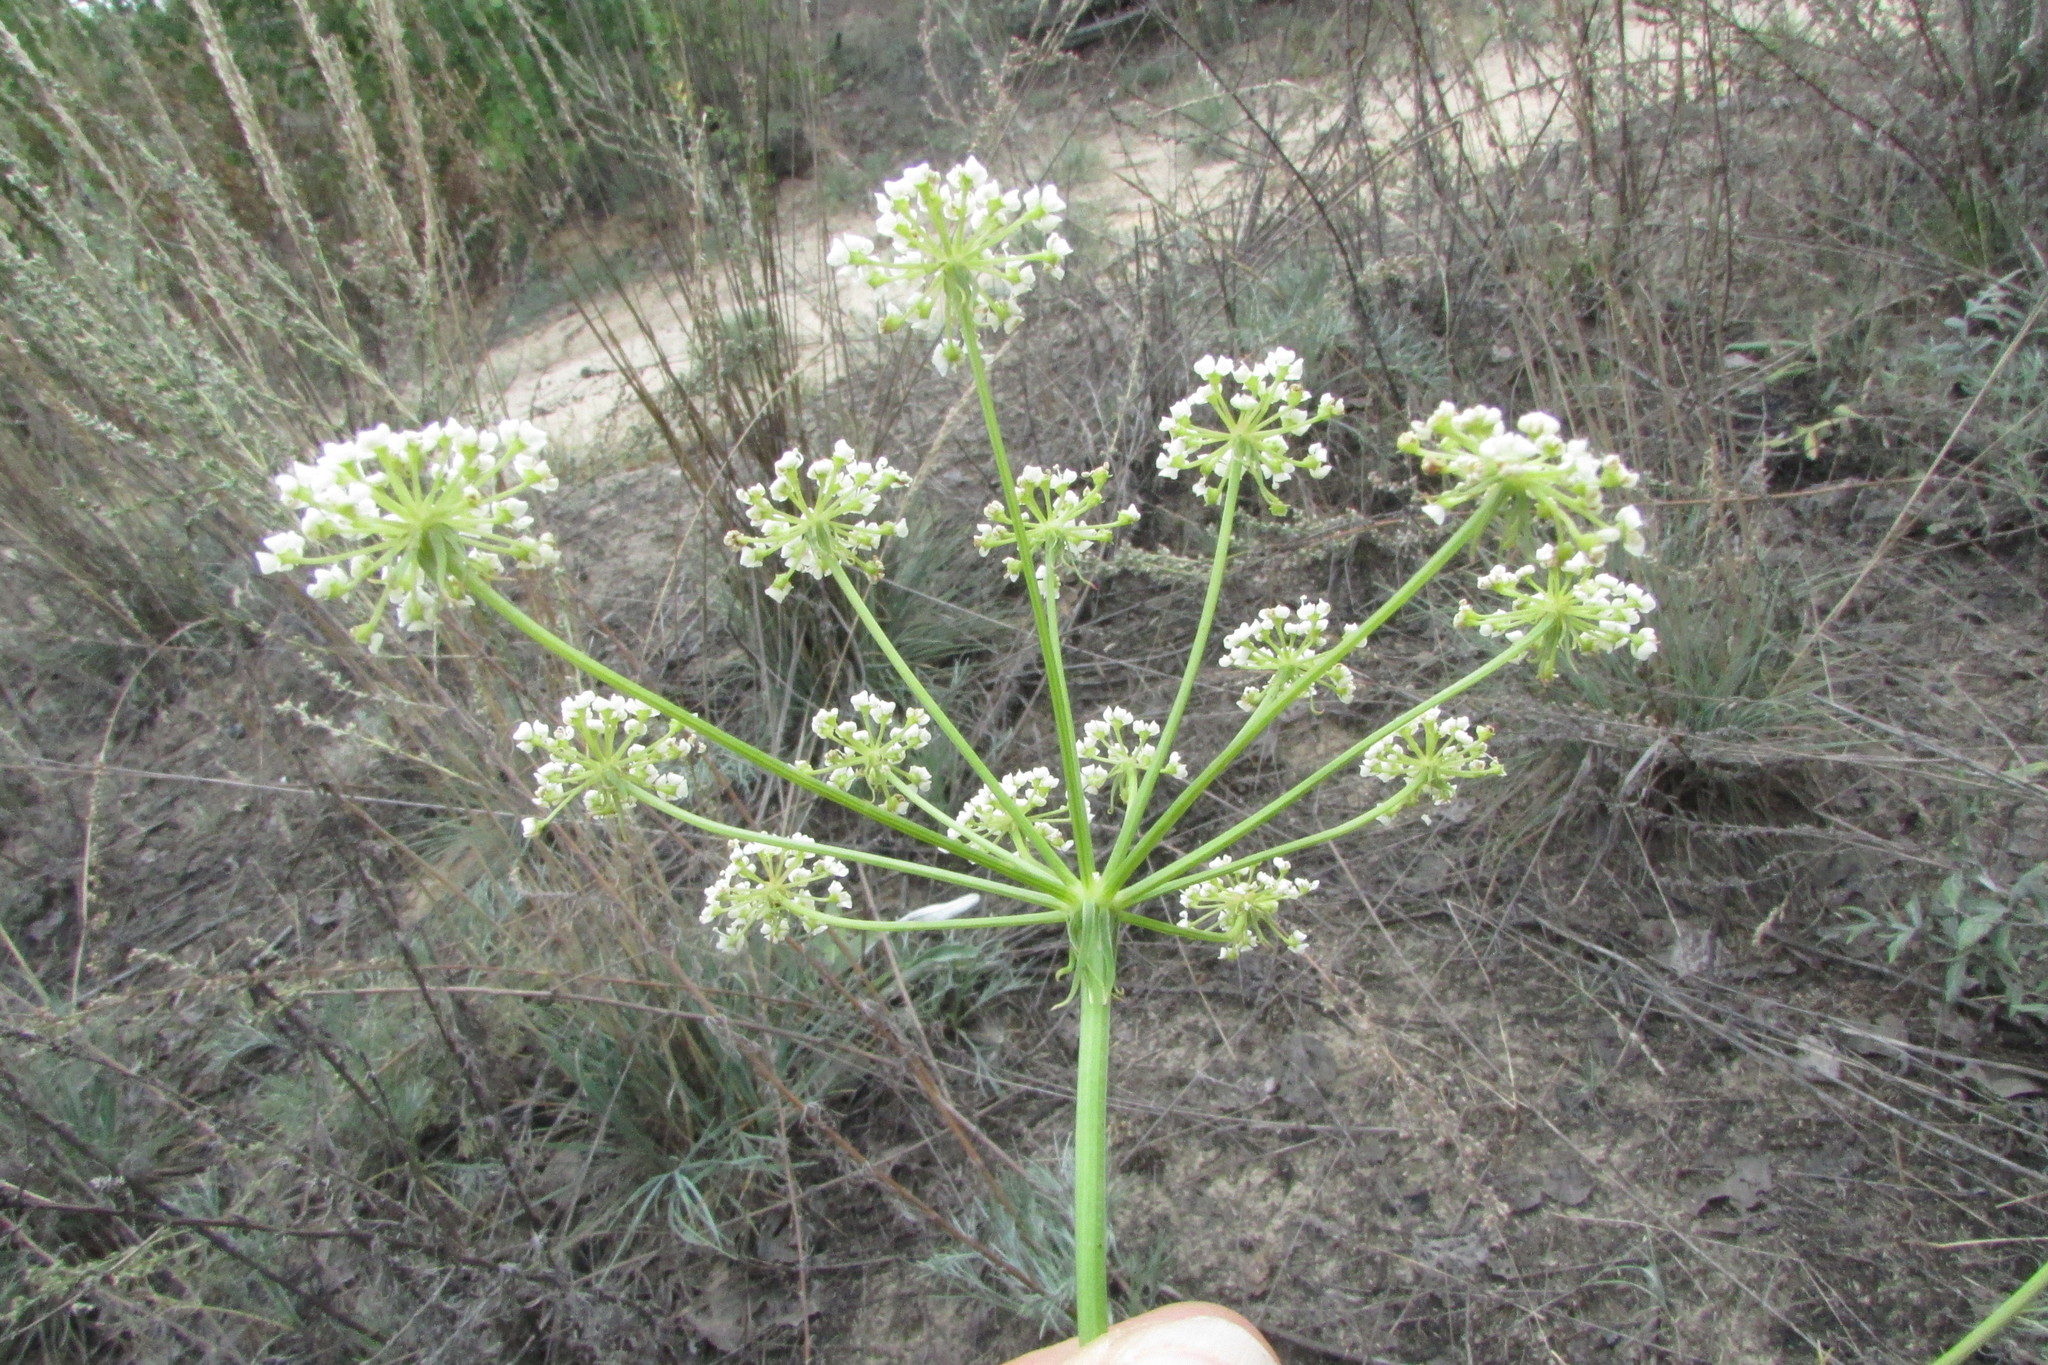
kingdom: Plantae
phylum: Tracheophyta
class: Magnoliopsida
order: Apiales
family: Apiaceae
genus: Oreoselinum
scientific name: Oreoselinum nigrum
